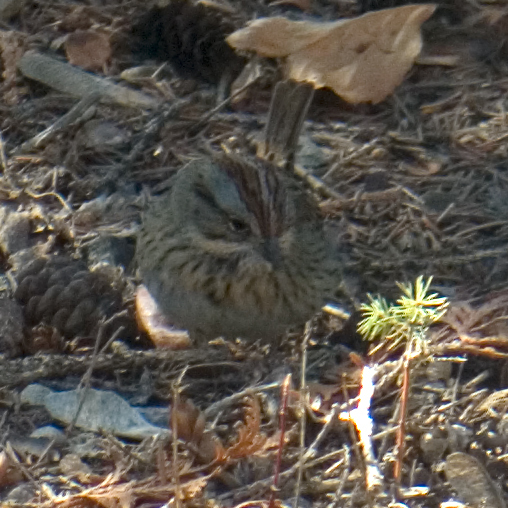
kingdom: Animalia
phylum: Chordata
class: Aves
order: Passeriformes
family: Passerellidae
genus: Melospiza
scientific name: Melospiza lincolnii
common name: Lincoln's sparrow
